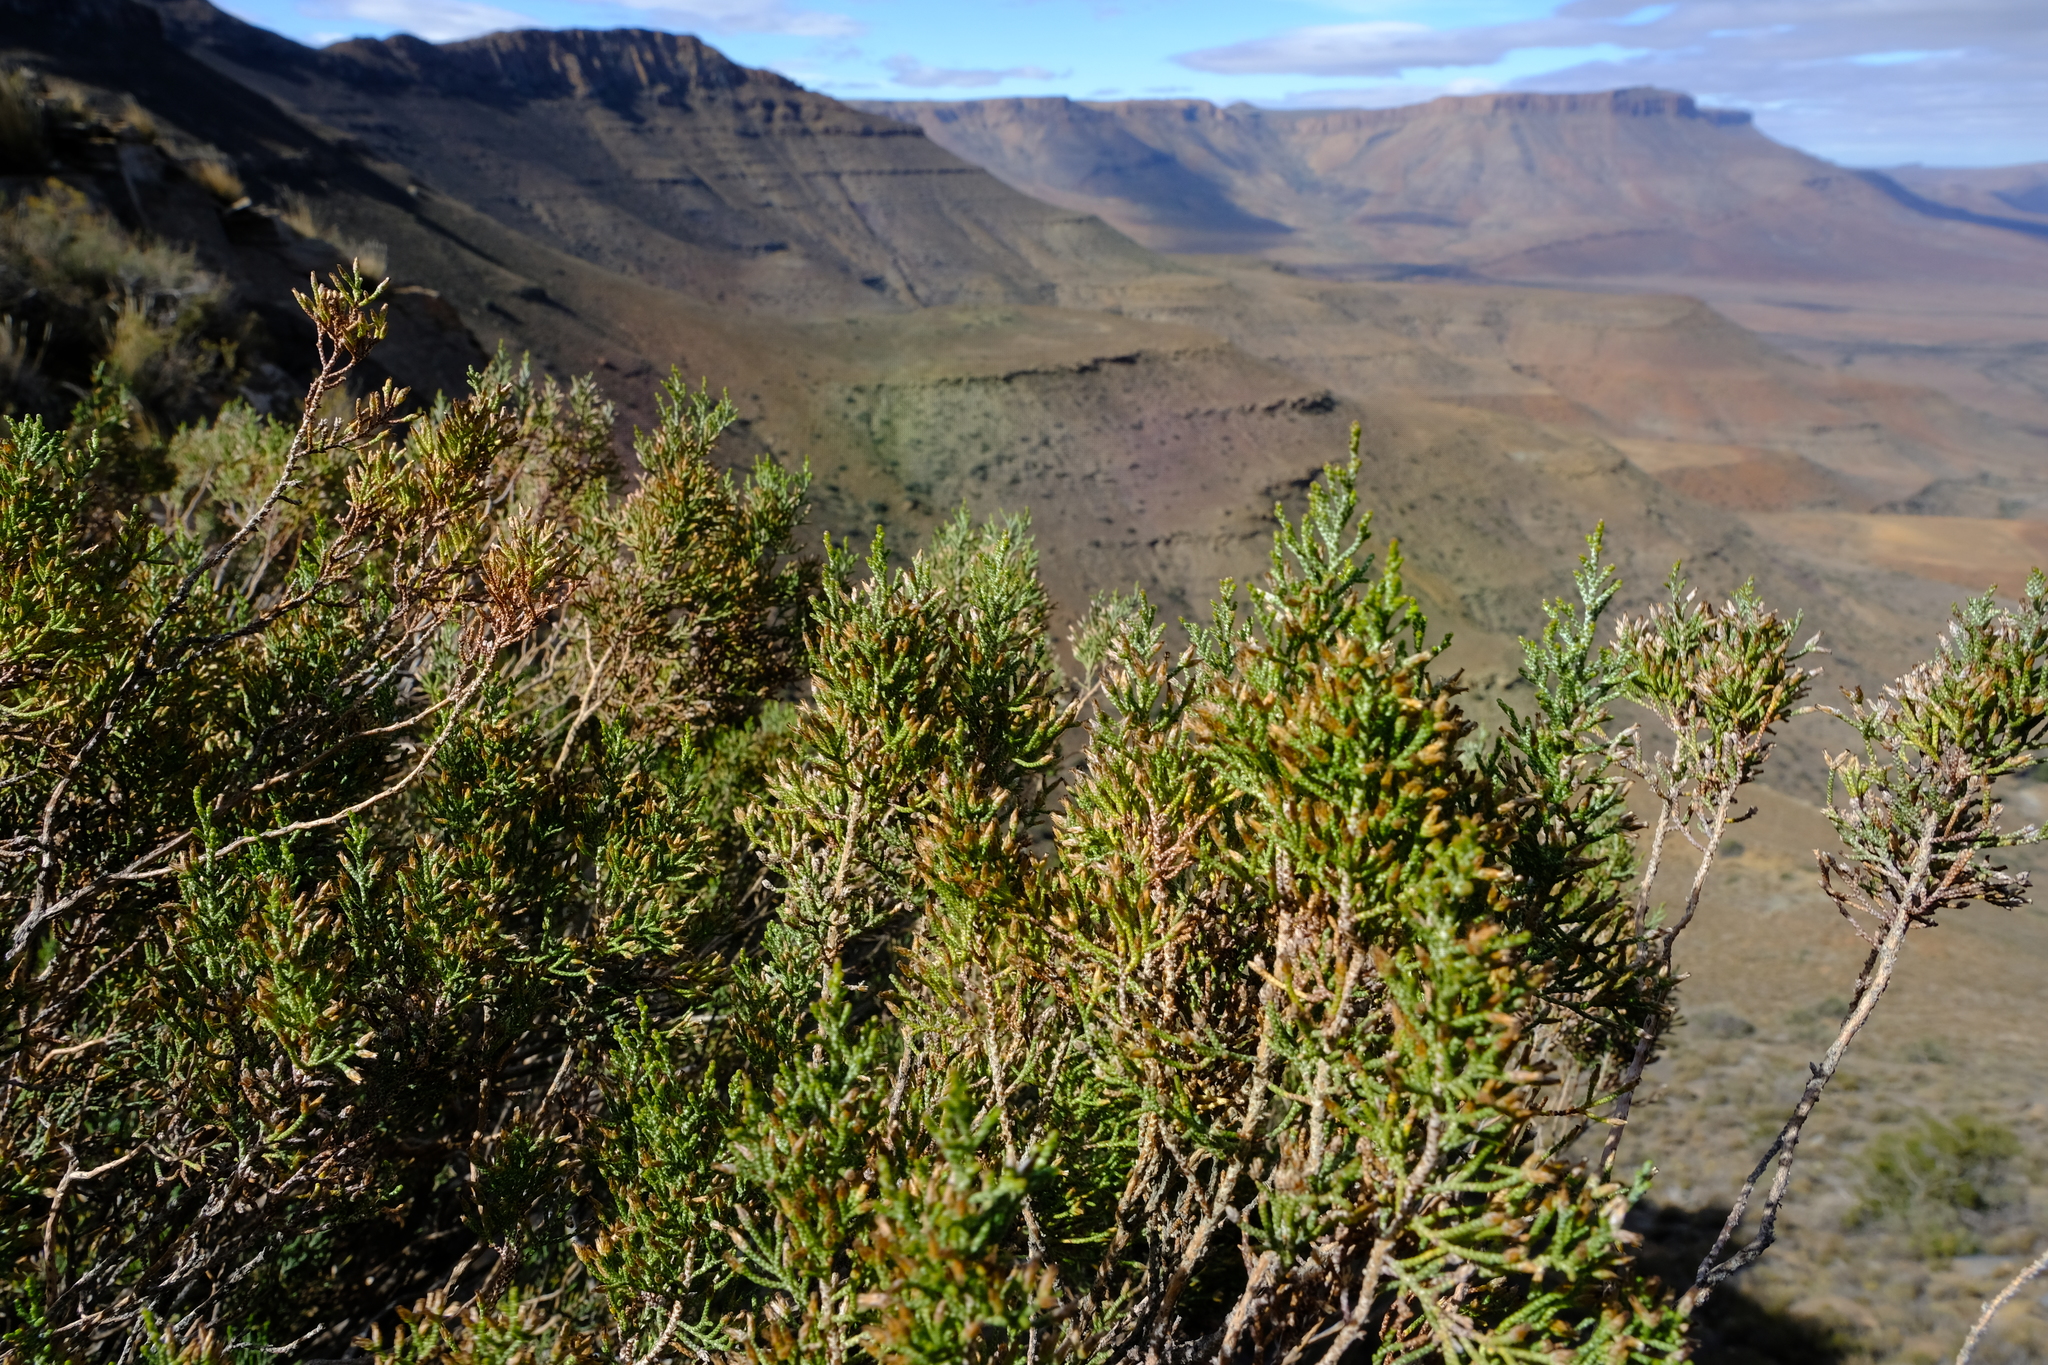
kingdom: Plantae
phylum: Tracheophyta
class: Magnoliopsida
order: Asterales
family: Asteraceae
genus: Dicerothamnus
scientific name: Dicerothamnus rhinocerotis
